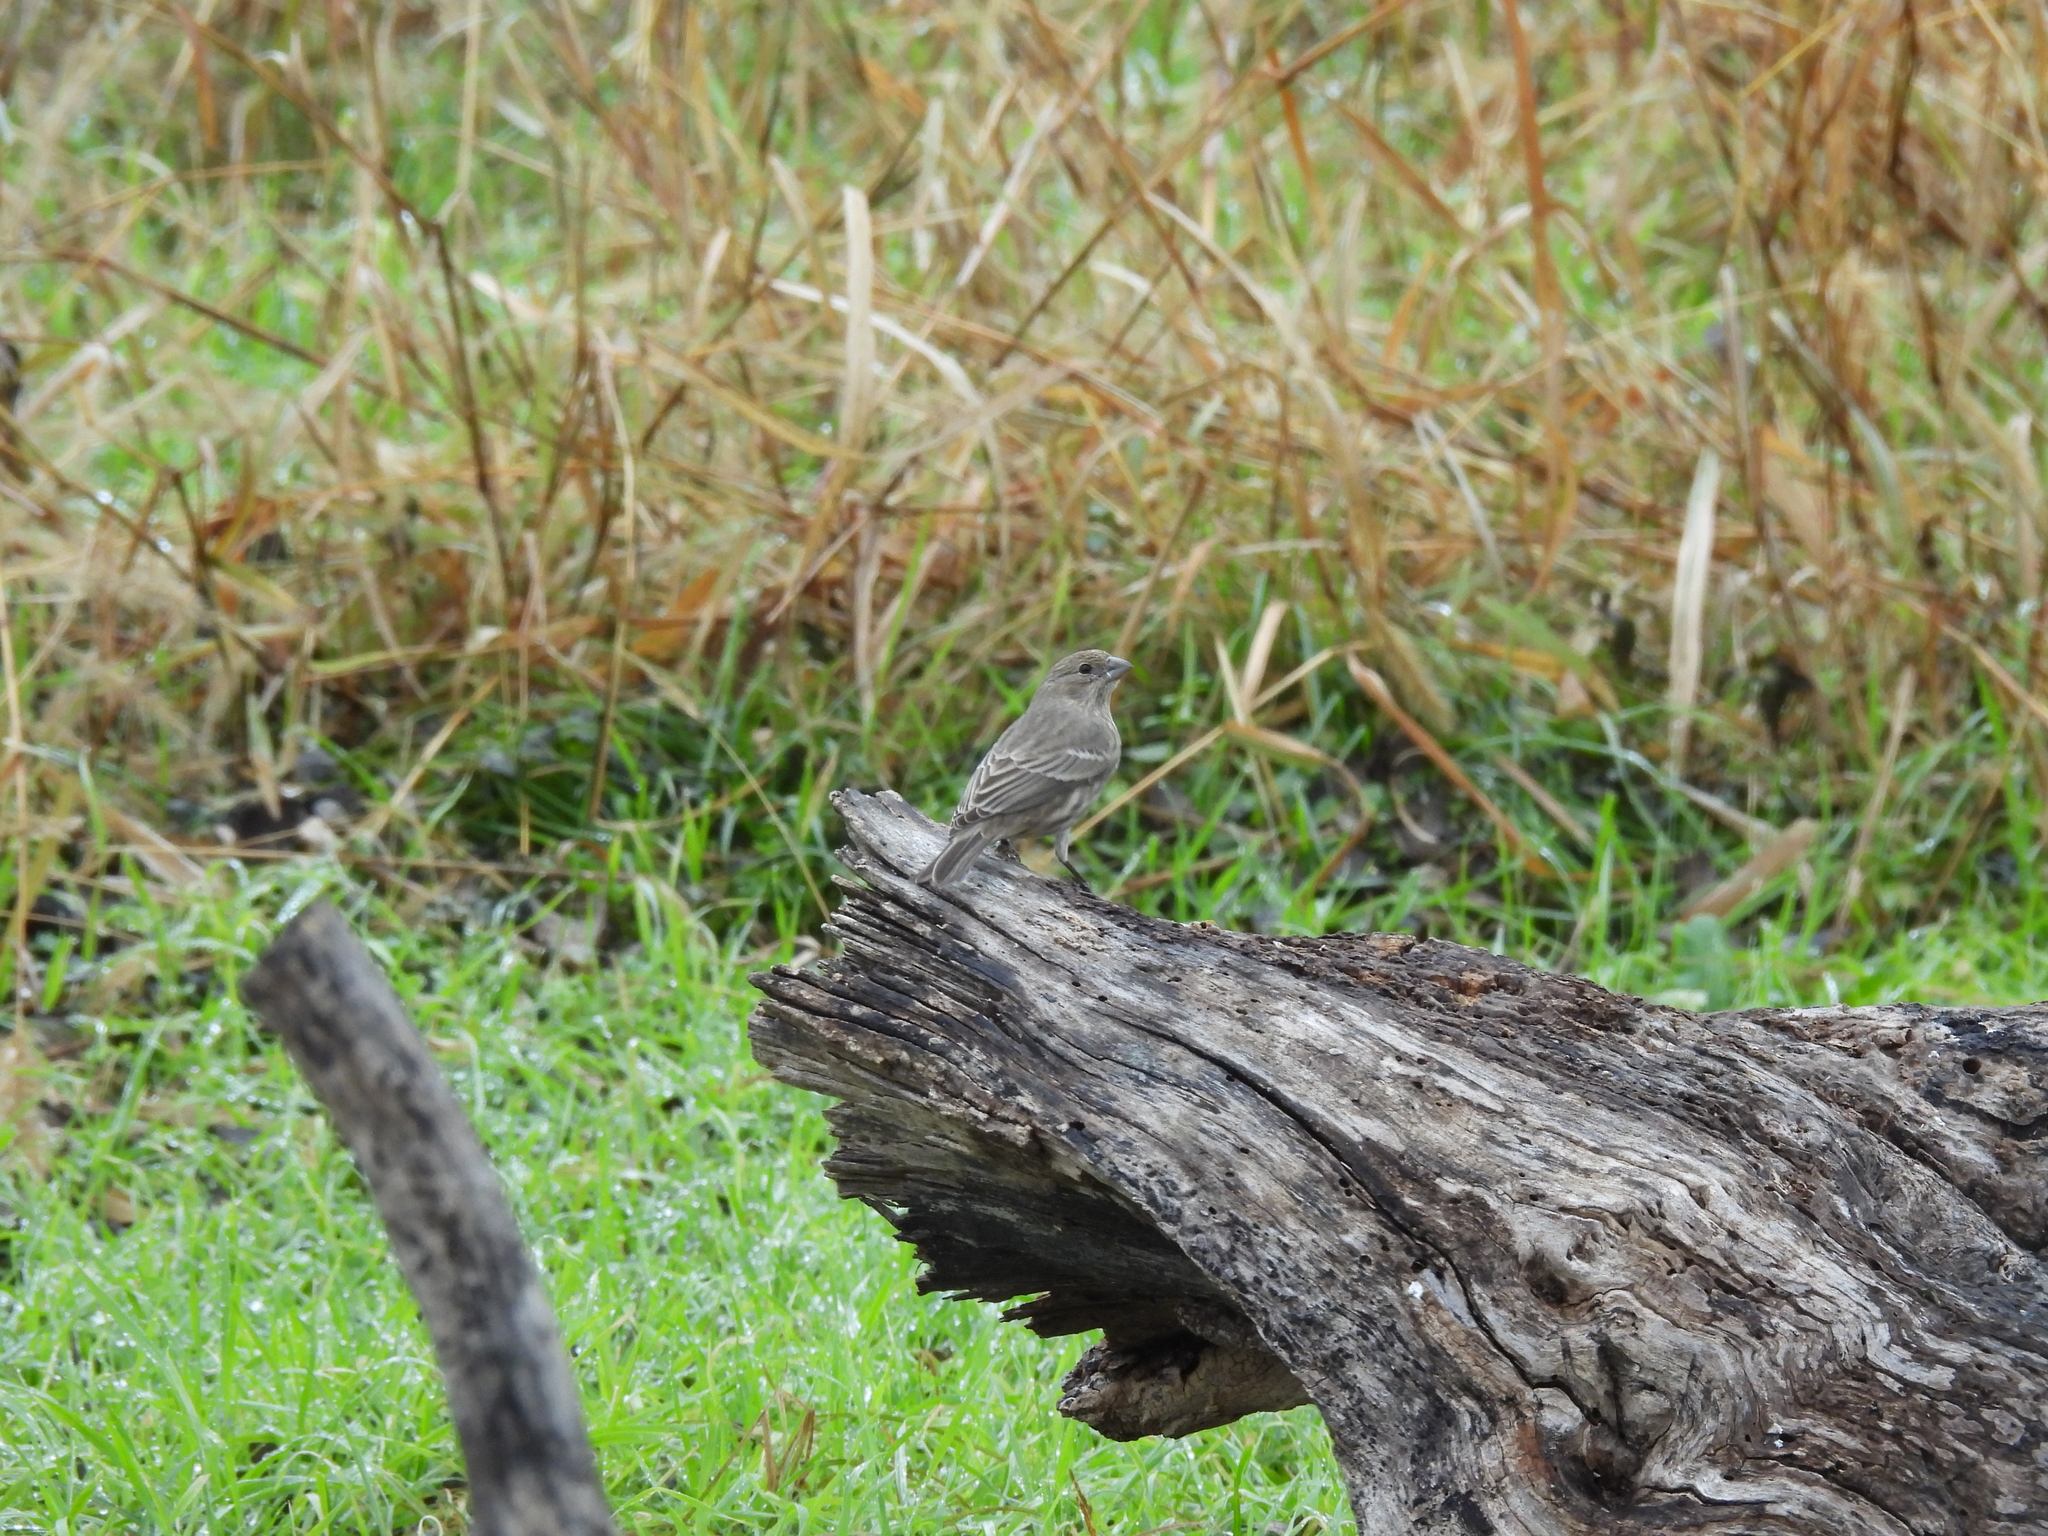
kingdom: Animalia
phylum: Chordata
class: Aves
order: Passeriformes
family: Fringillidae
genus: Haemorhous
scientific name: Haemorhous mexicanus
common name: House finch
